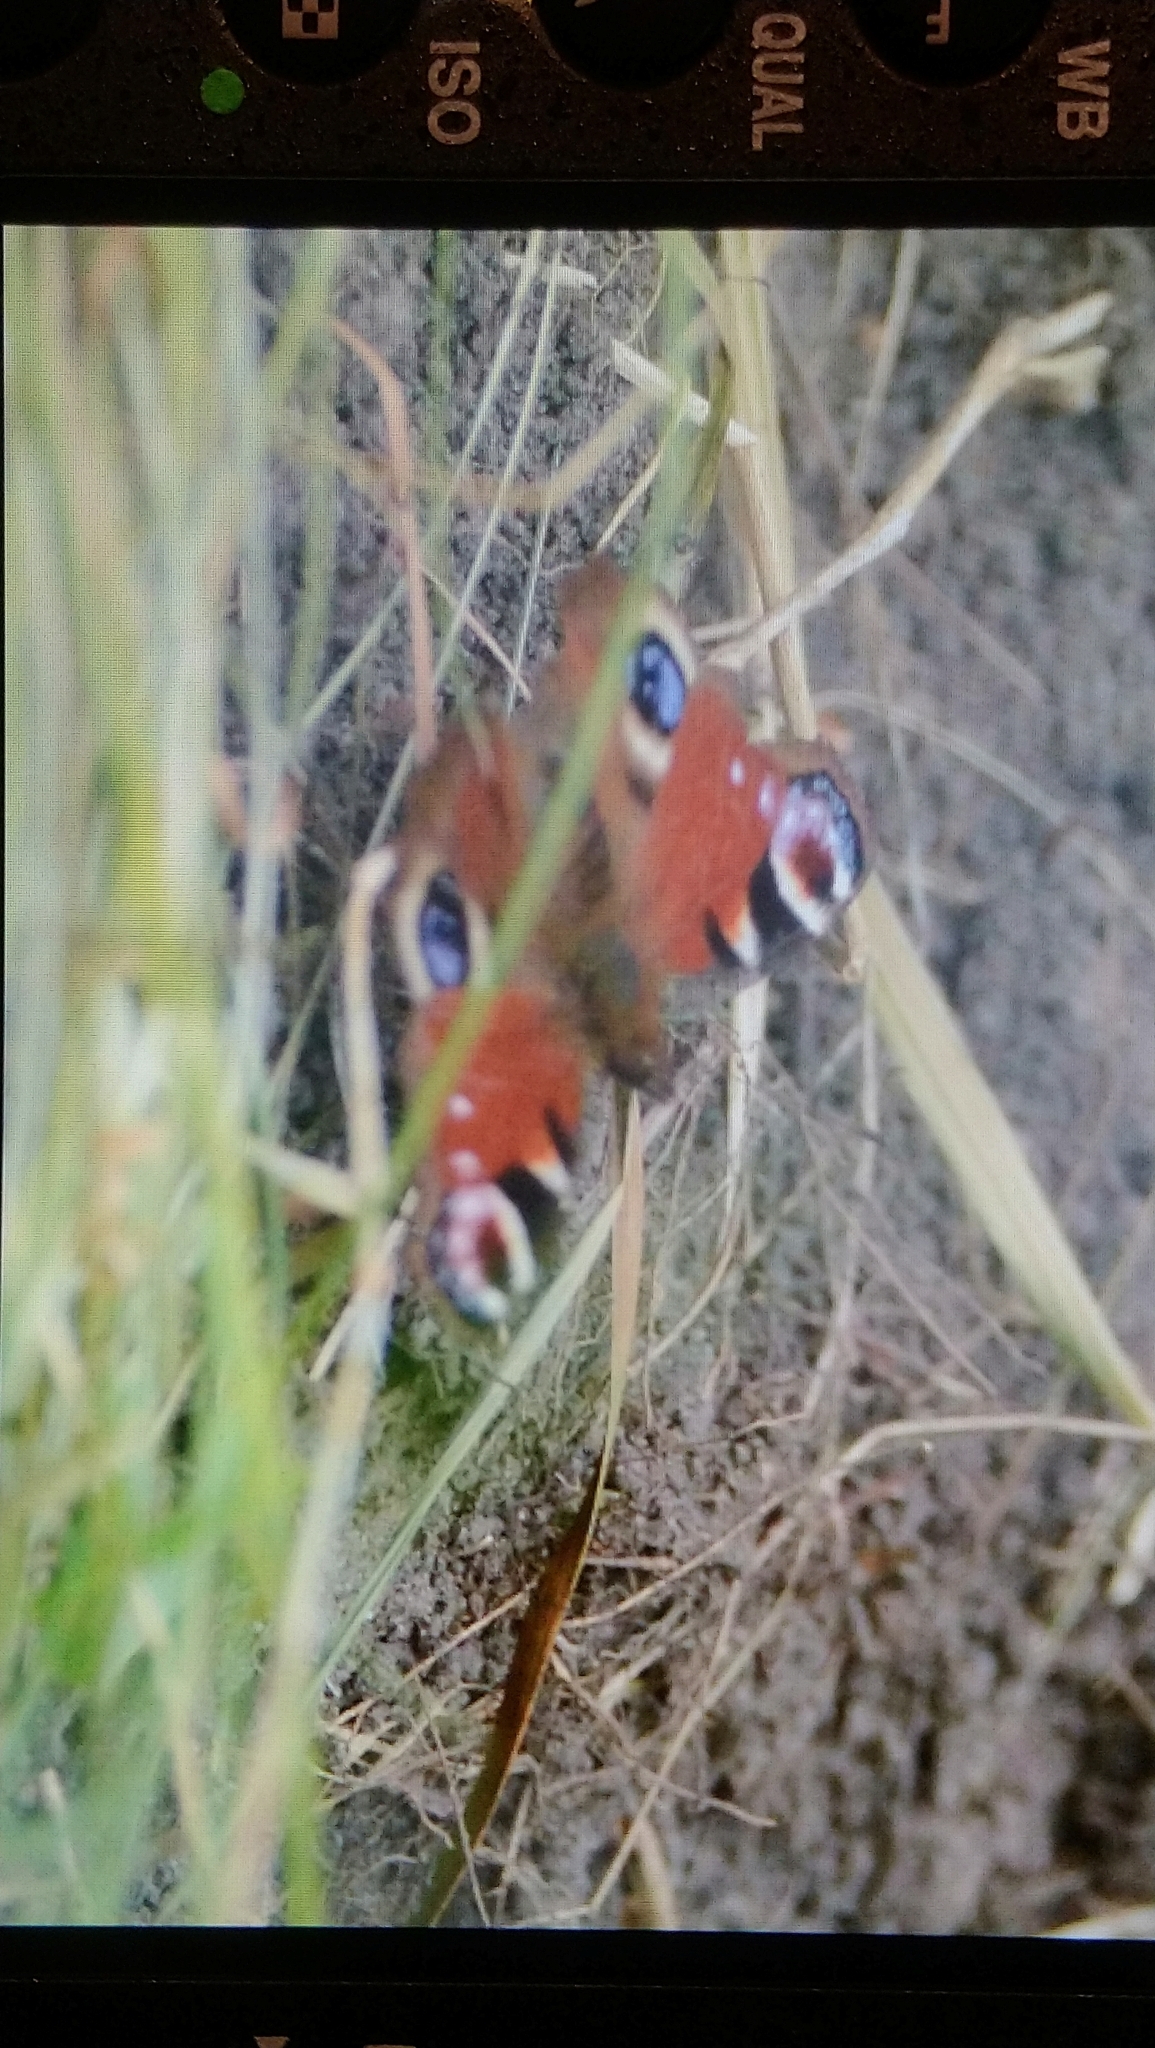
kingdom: Animalia
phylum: Arthropoda
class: Insecta
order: Lepidoptera
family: Nymphalidae
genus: Aglais
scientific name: Aglais io
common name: Peacock
